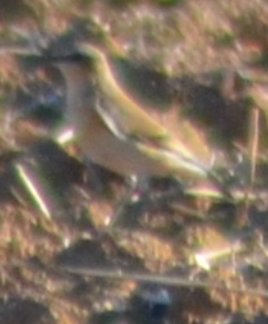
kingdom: Animalia
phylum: Chordata
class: Aves
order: Passeriformes
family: Muscicapidae
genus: Oenanthe
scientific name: Oenanthe oenanthe
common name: Northern wheatear
